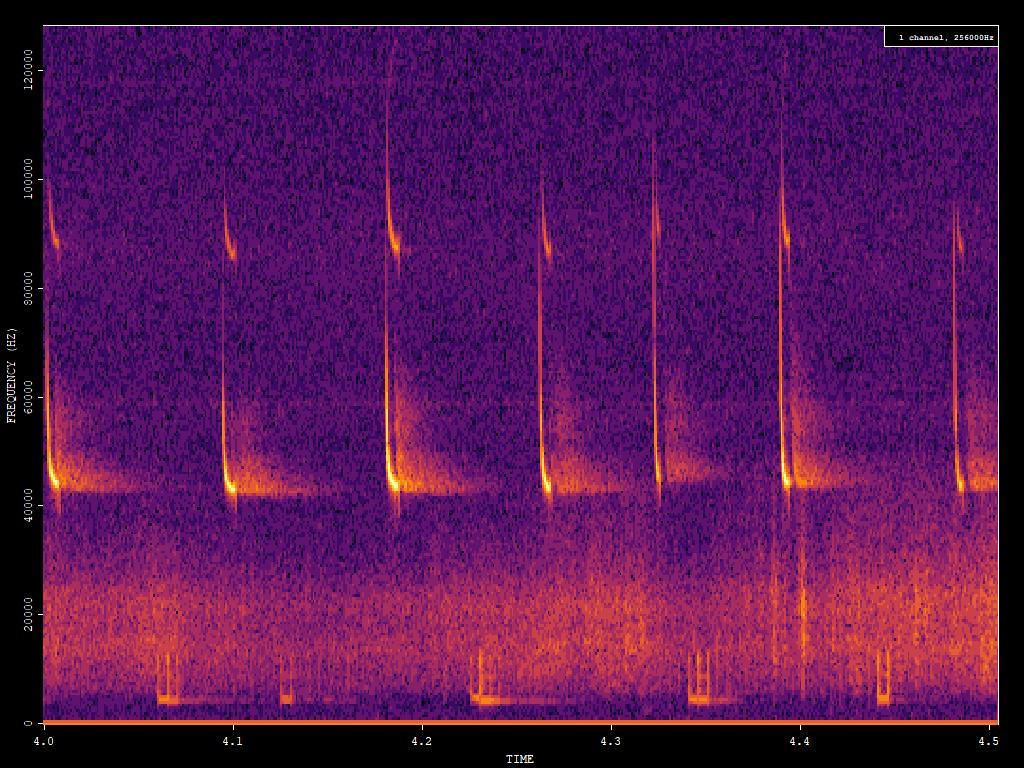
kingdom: Animalia
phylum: Chordata
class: Mammalia
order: Chiroptera
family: Vespertilionidae
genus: Pipistrellus
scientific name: Pipistrellus pipistrellus
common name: Common pipistrelle
